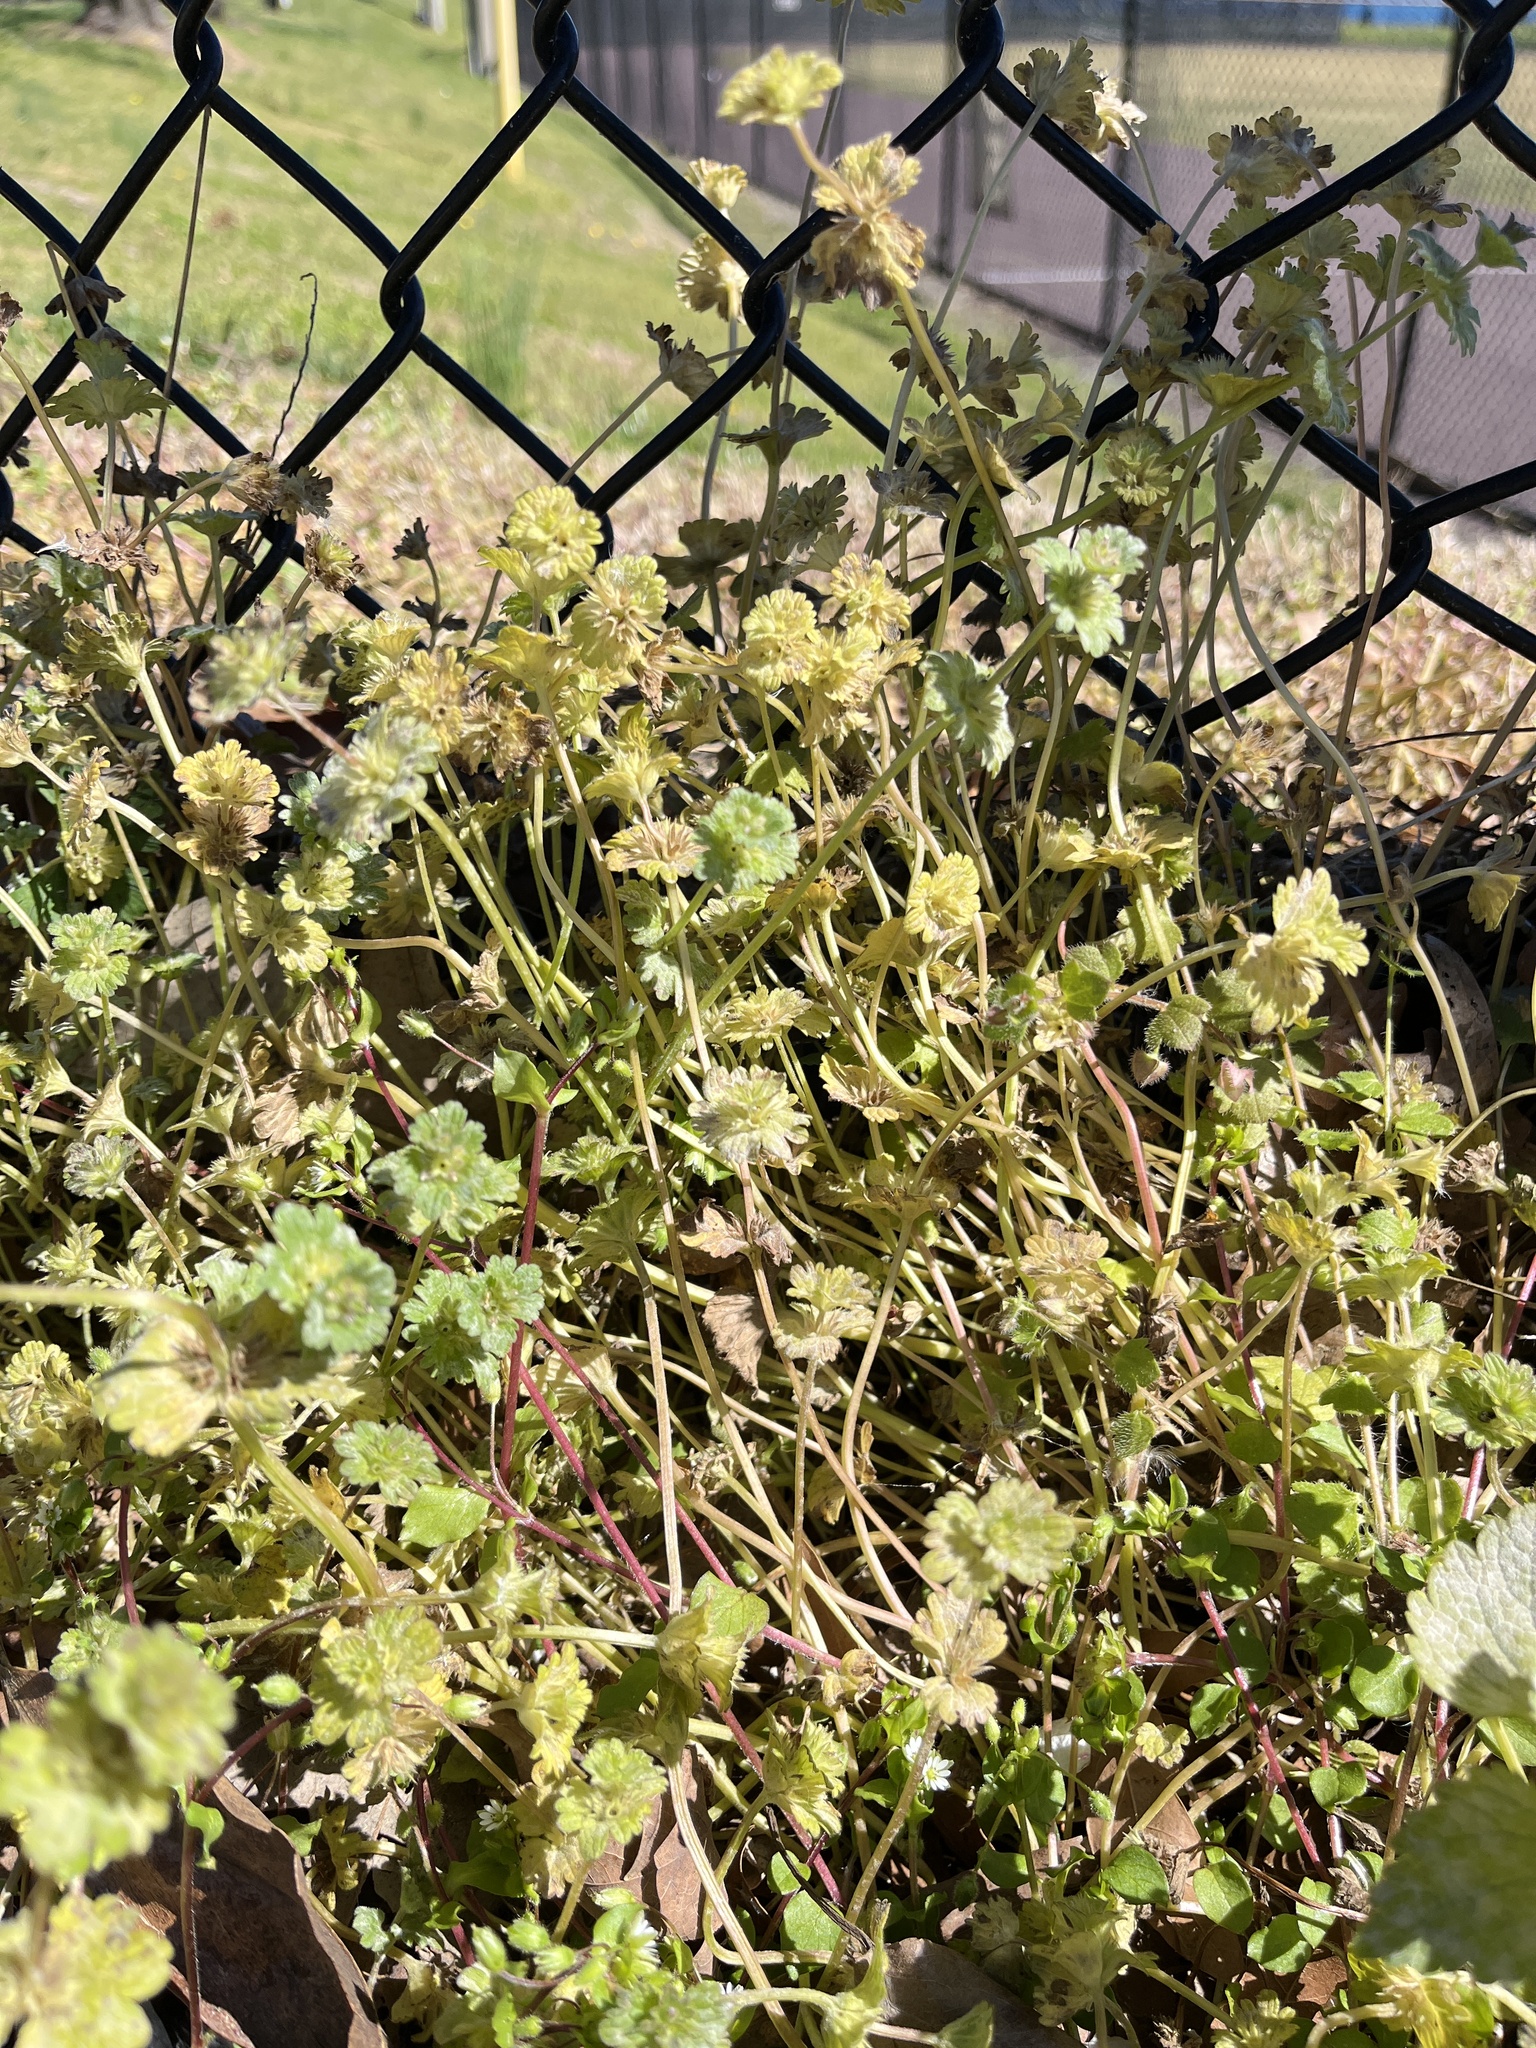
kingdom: Plantae
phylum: Tracheophyta
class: Magnoliopsida
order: Lamiales
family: Lamiaceae
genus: Lamium
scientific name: Lamium amplexicaule
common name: Henbit dead-nettle
